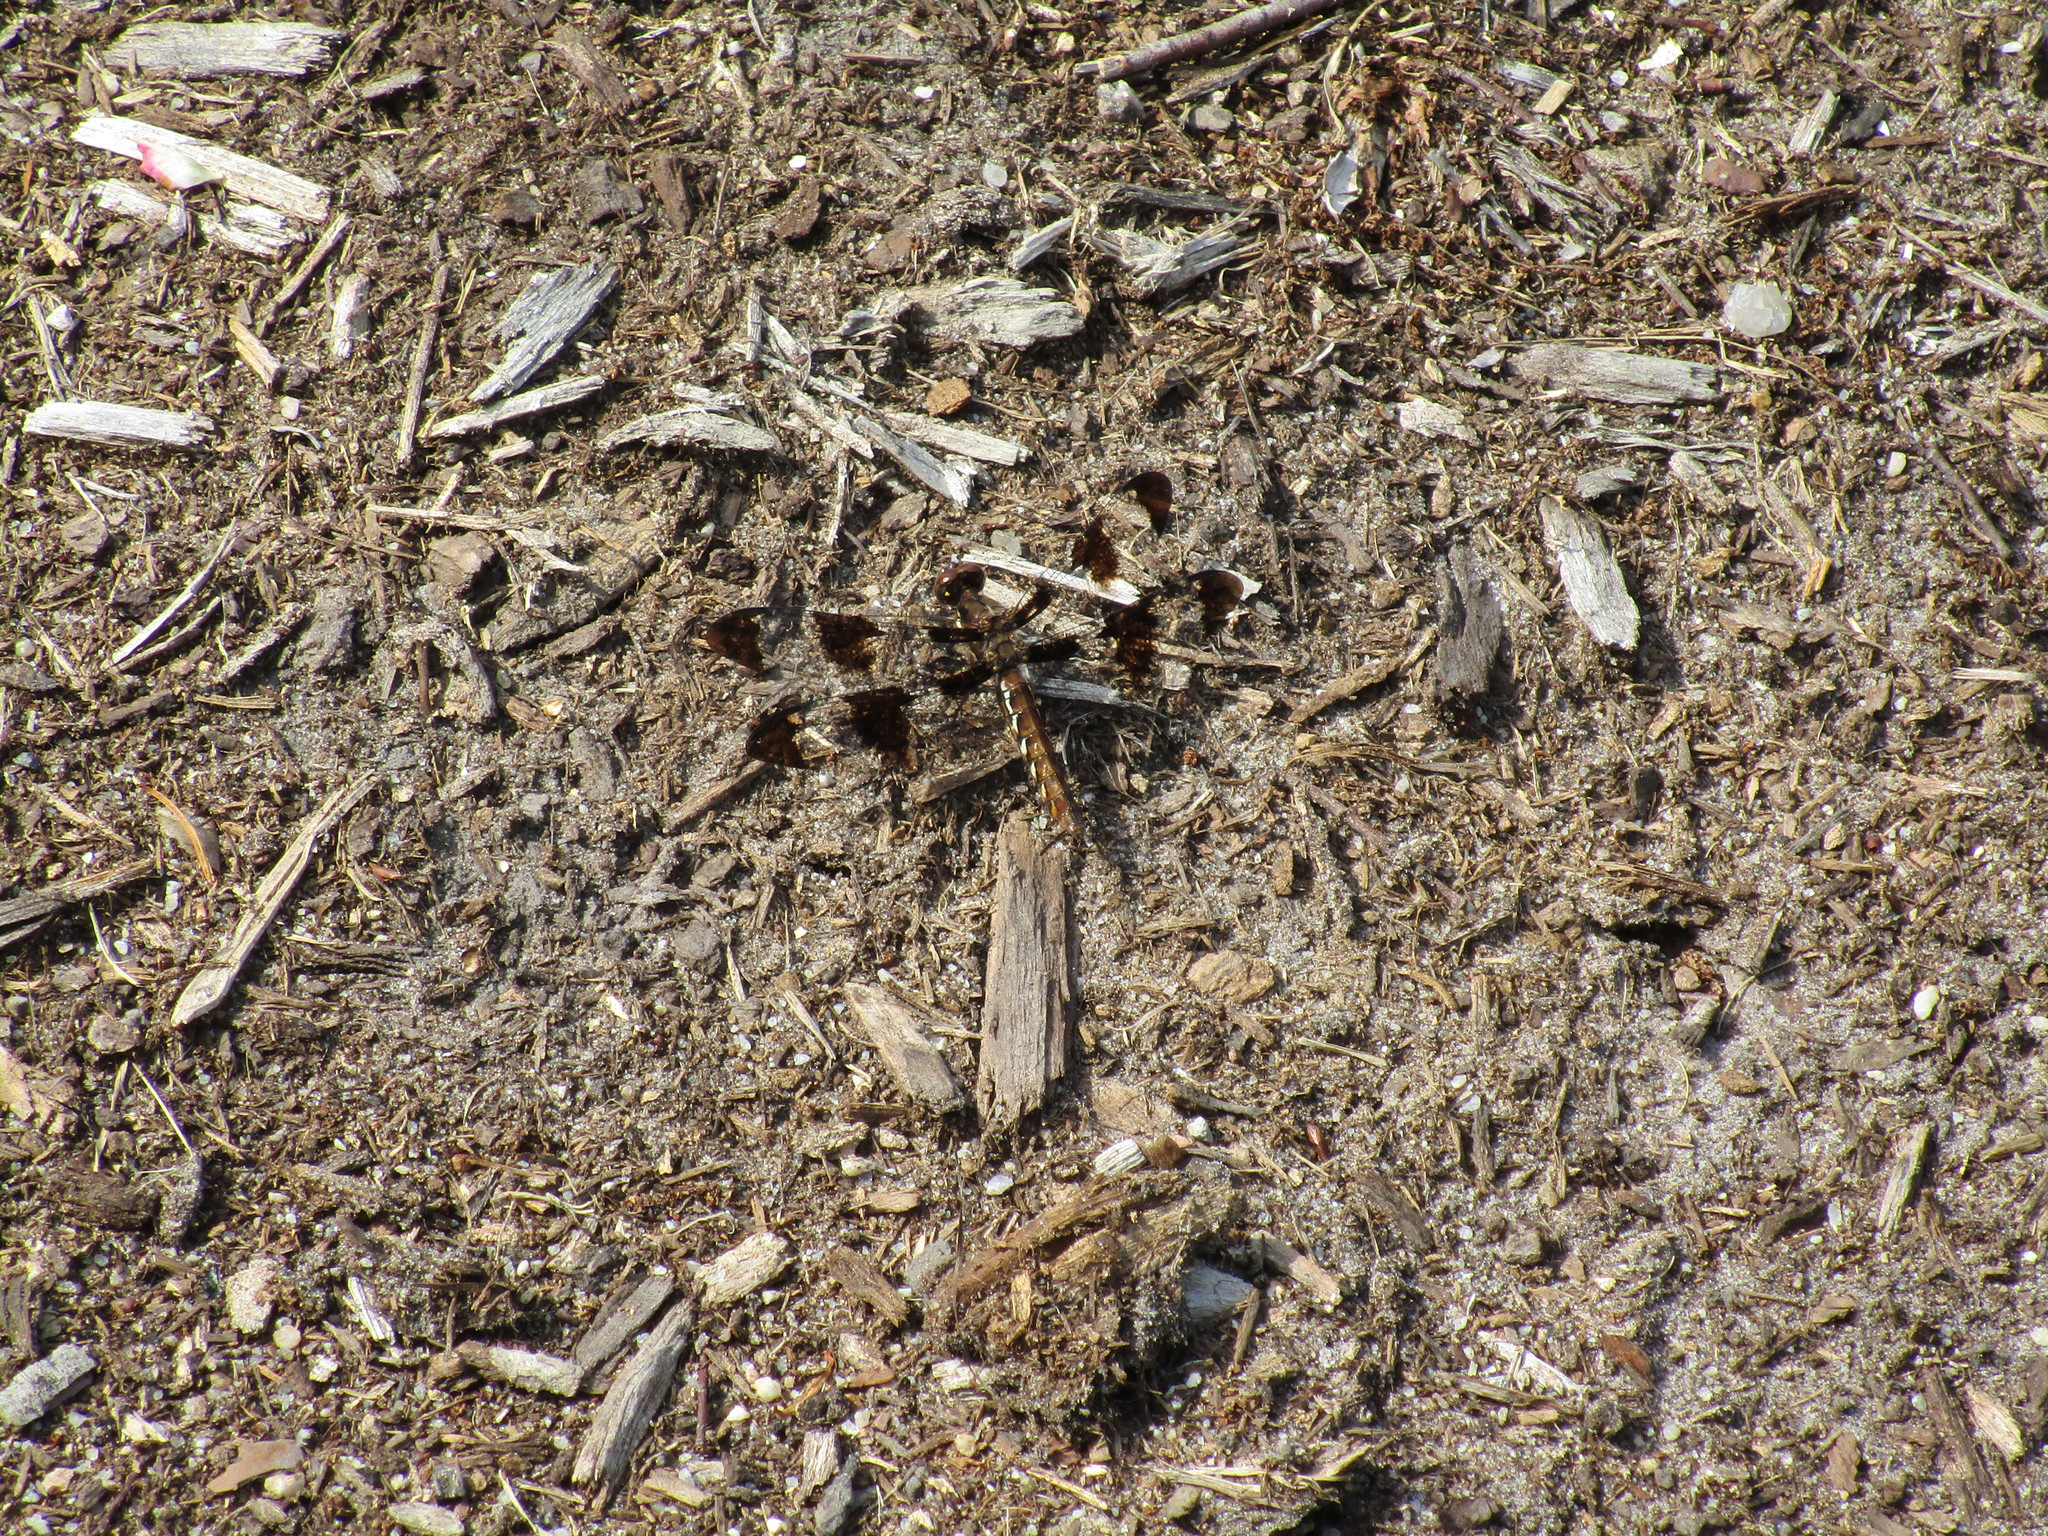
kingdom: Animalia
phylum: Arthropoda
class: Insecta
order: Odonata
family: Libellulidae
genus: Plathemis
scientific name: Plathemis lydia
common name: Common whitetail
